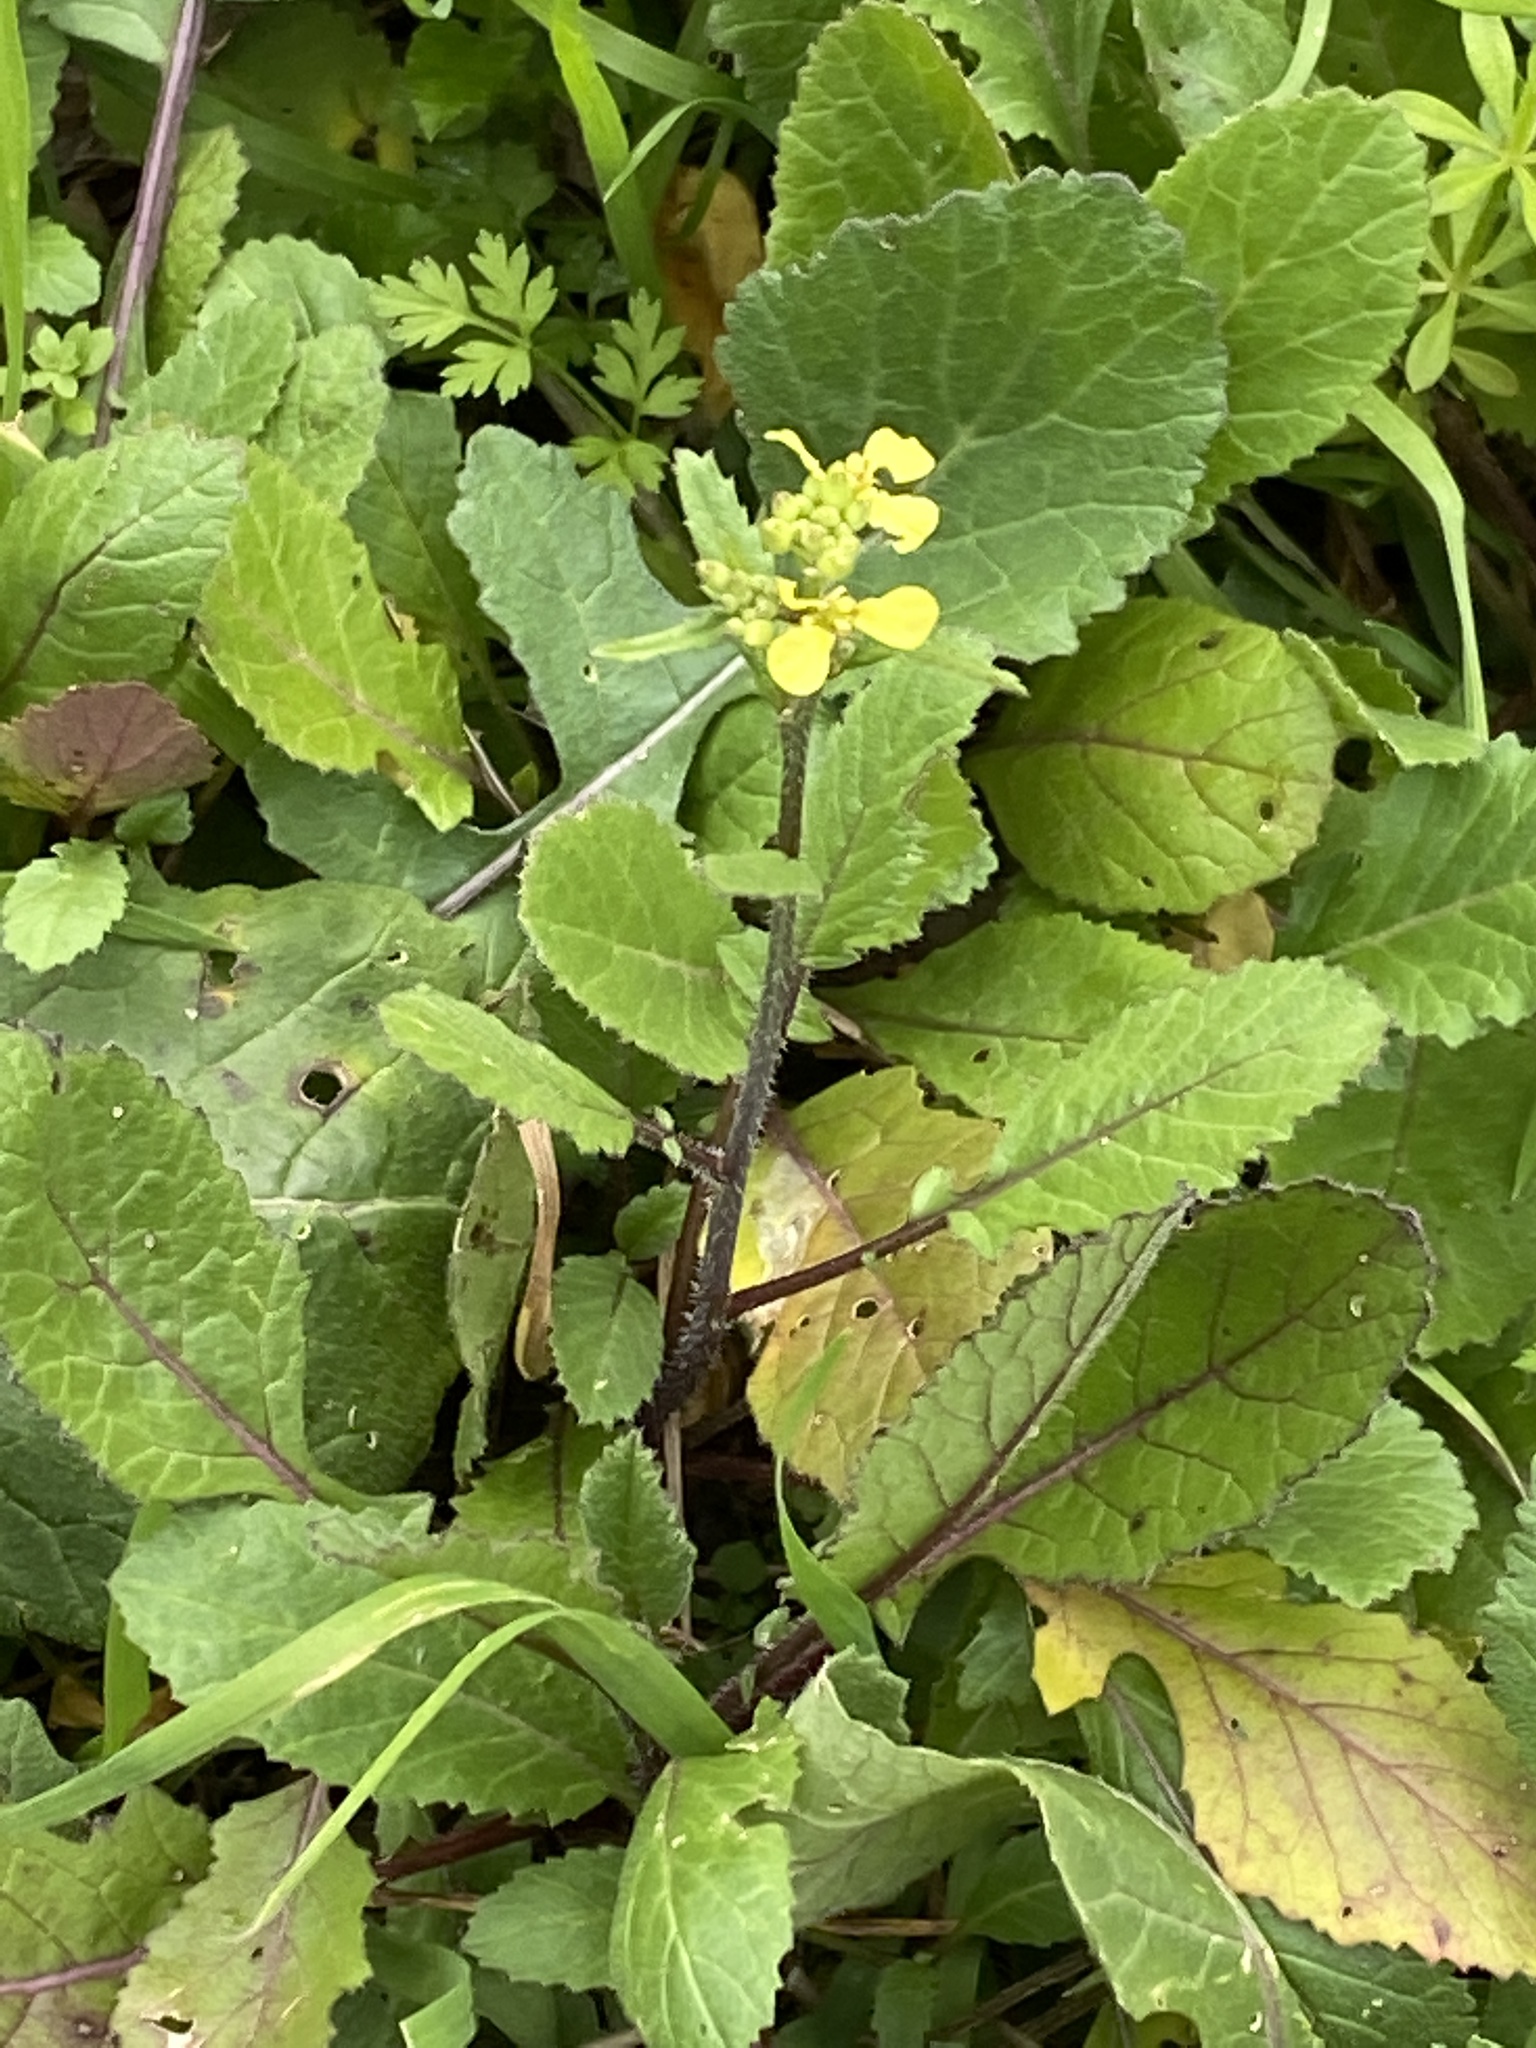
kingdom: Plantae
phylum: Tracheophyta
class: Magnoliopsida
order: Brassicales
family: Brassicaceae
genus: Rapistrum
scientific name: Rapistrum rugosum
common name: Annual bastardcabbage
